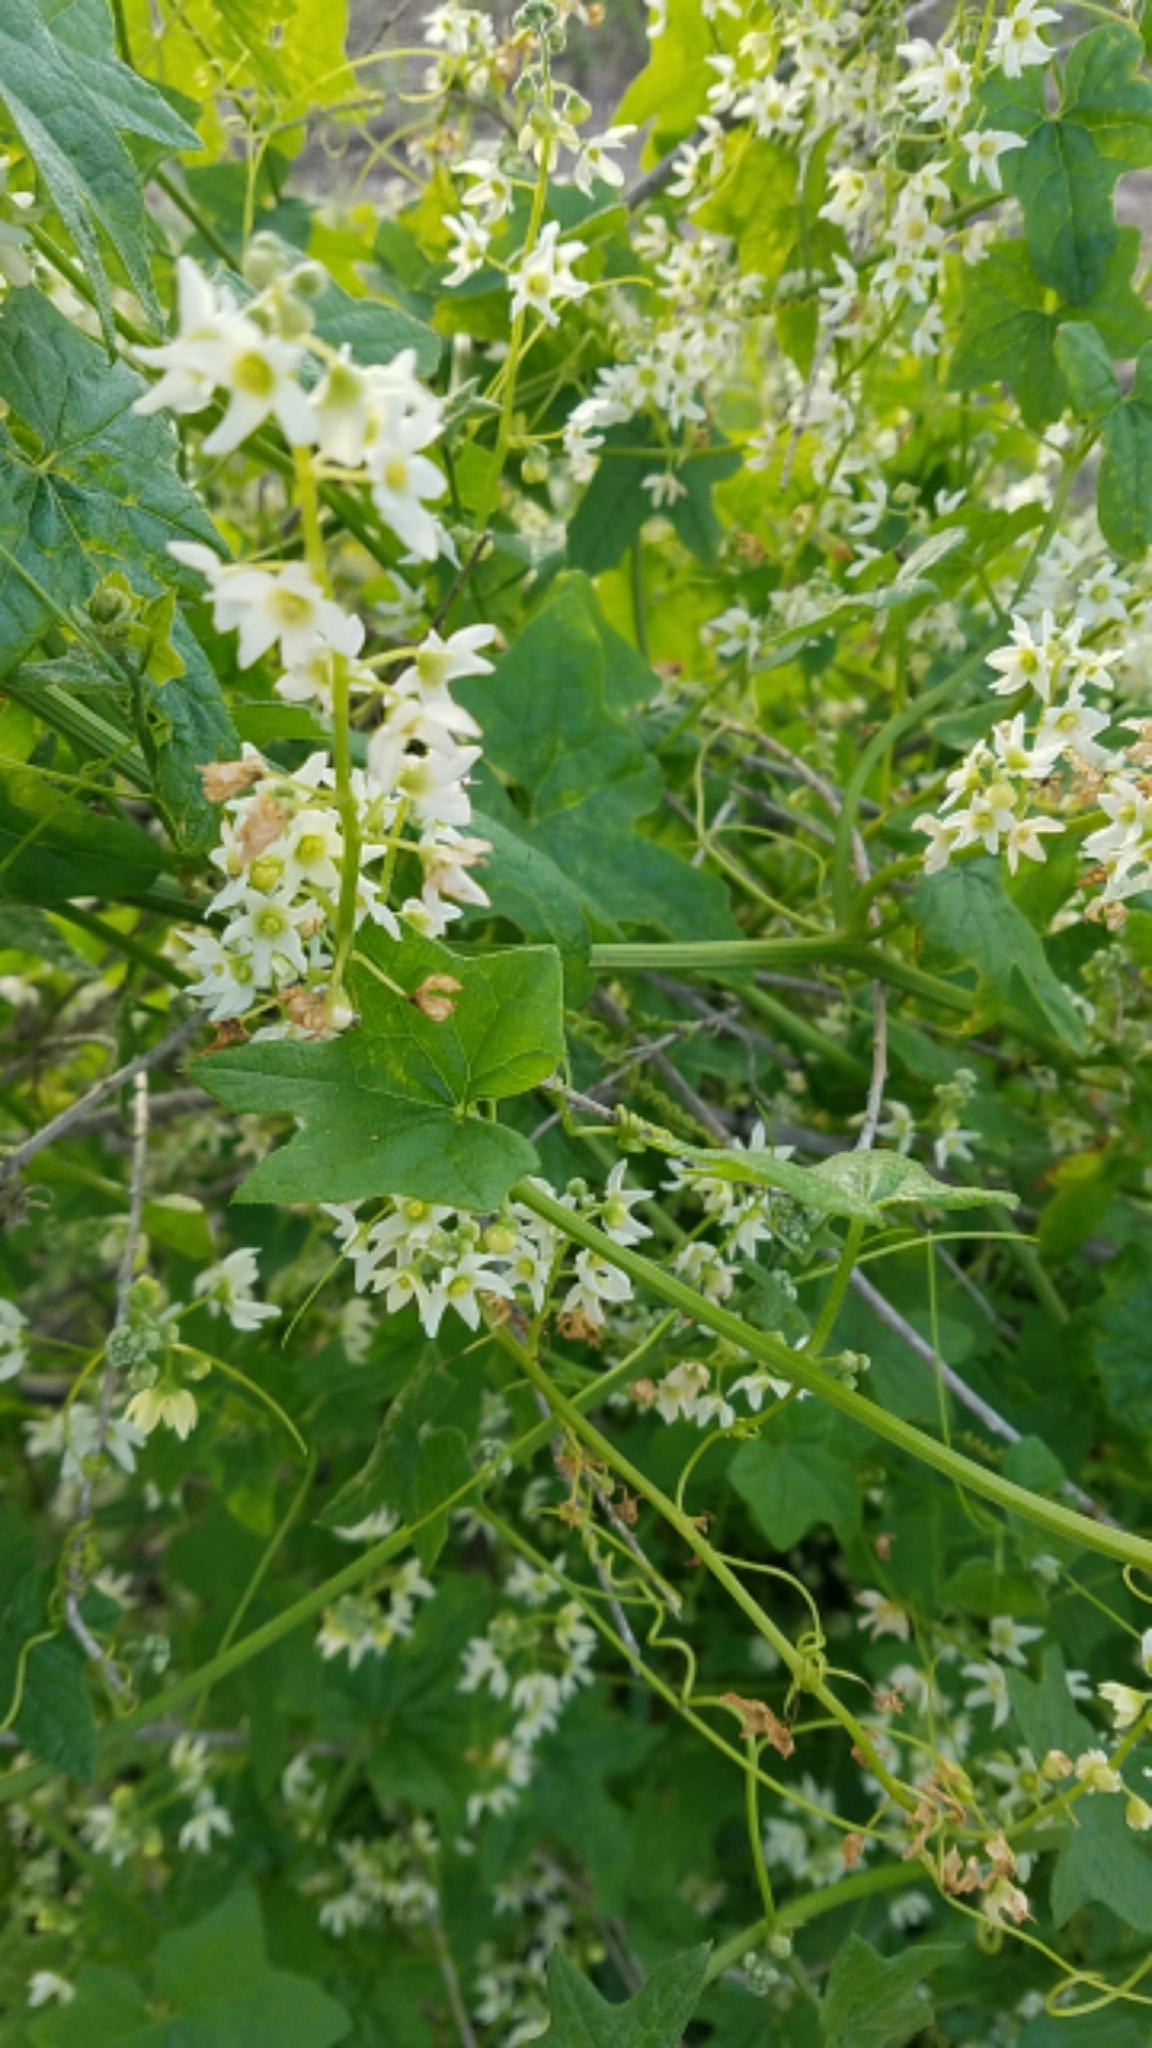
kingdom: Plantae
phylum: Tracheophyta
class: Magnoliopsida
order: Cucurbitales
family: Cucurbitaceae
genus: Marah
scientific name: Marah macrocarpa
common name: Cucamonga manroot
